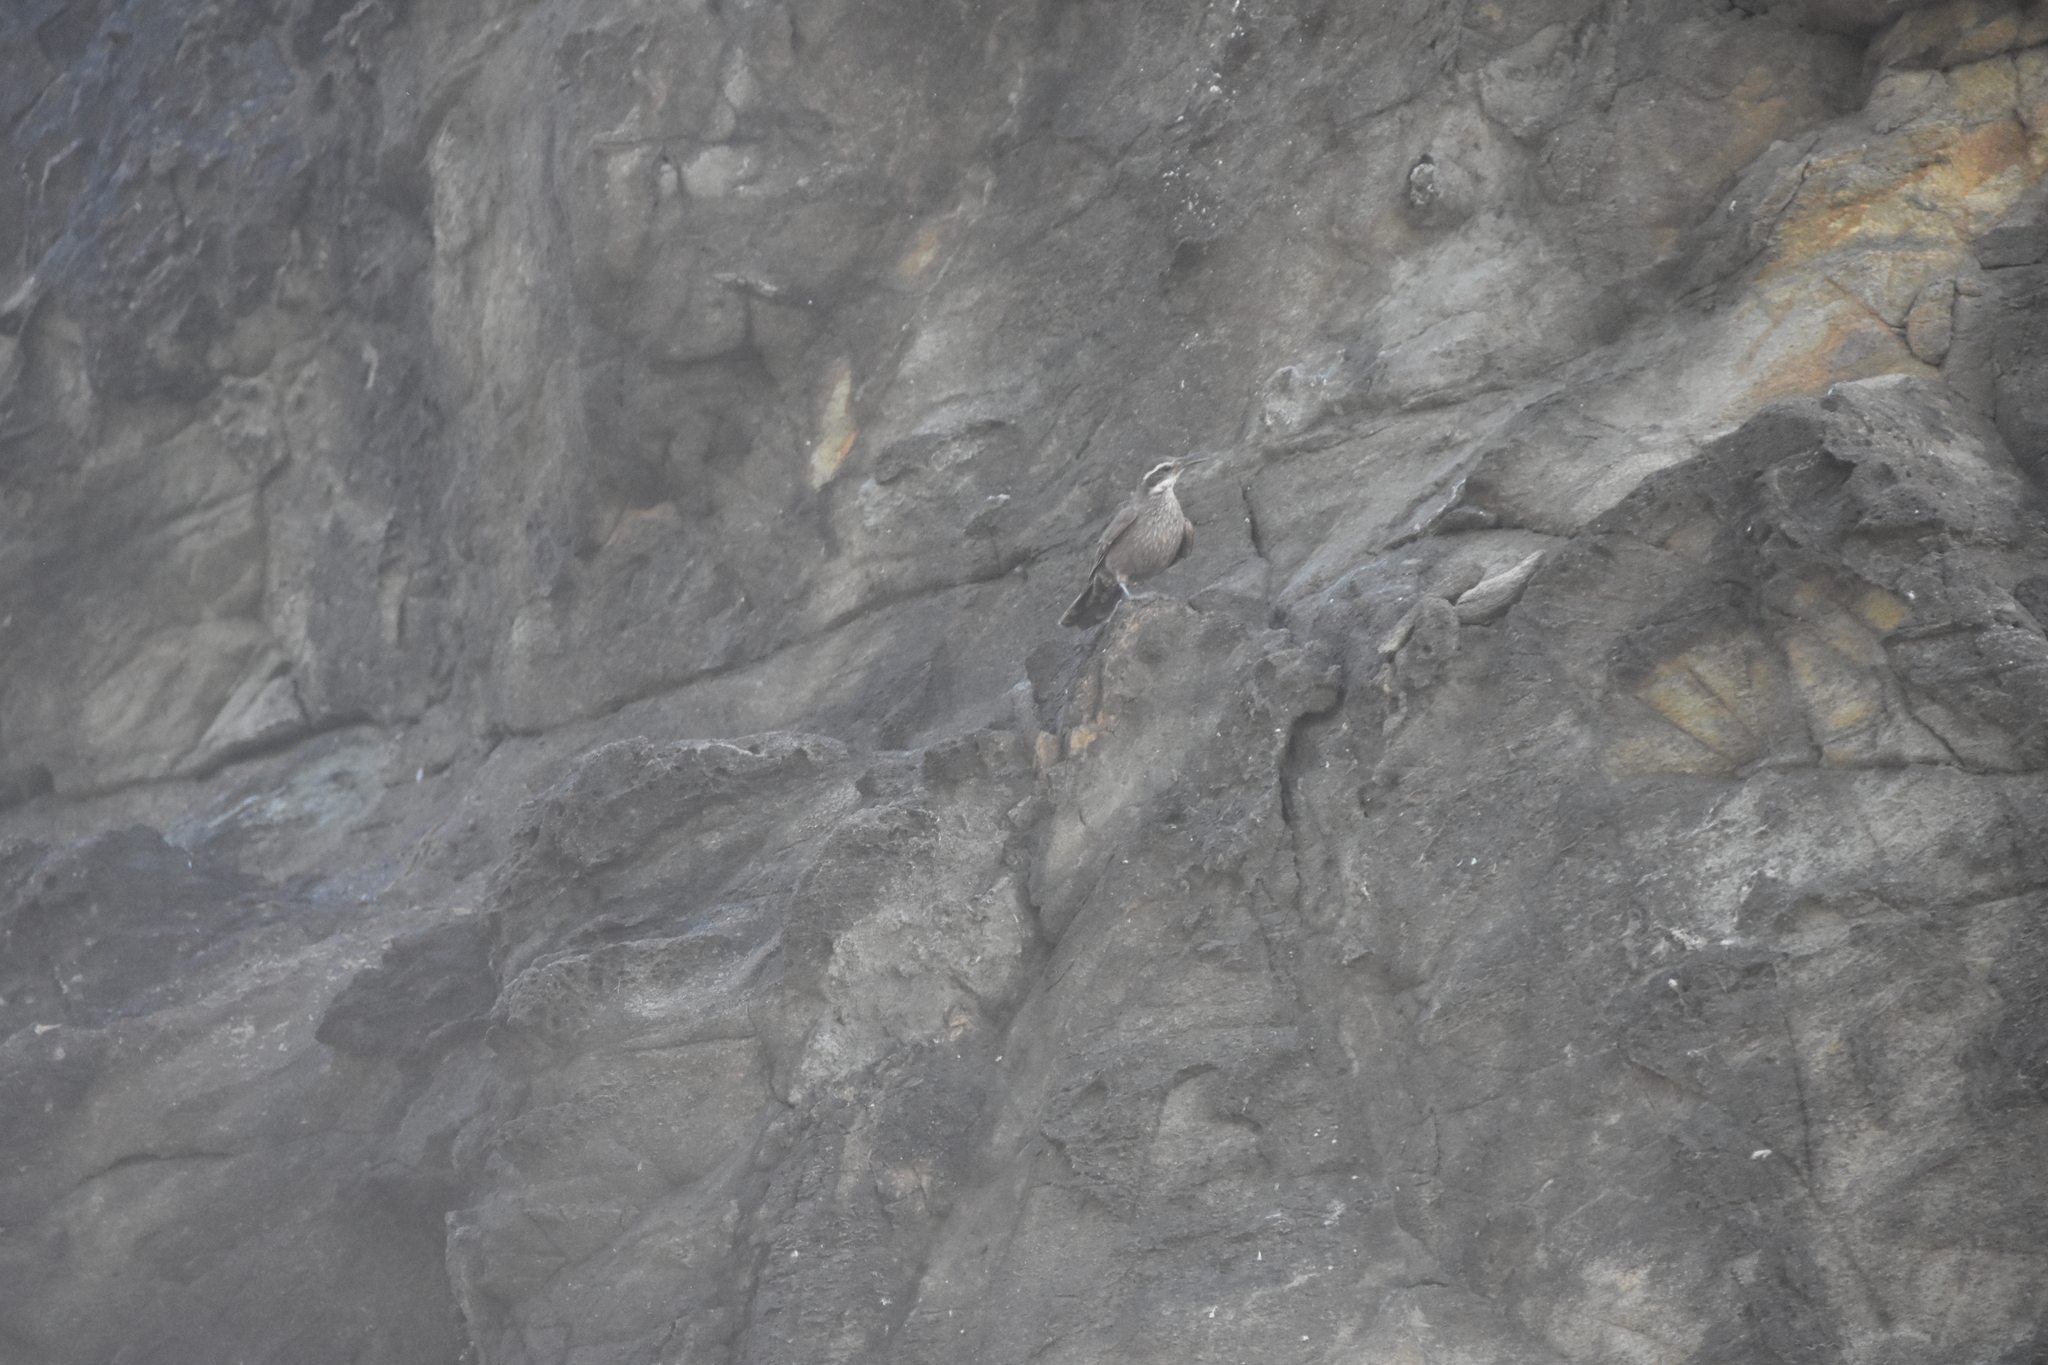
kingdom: Animalia
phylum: Chordata
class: Aves
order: Passeriformes
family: Furnariidae
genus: Cinclodes
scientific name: Cinclodes patagonicus
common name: Dark-bellied cinclodes
